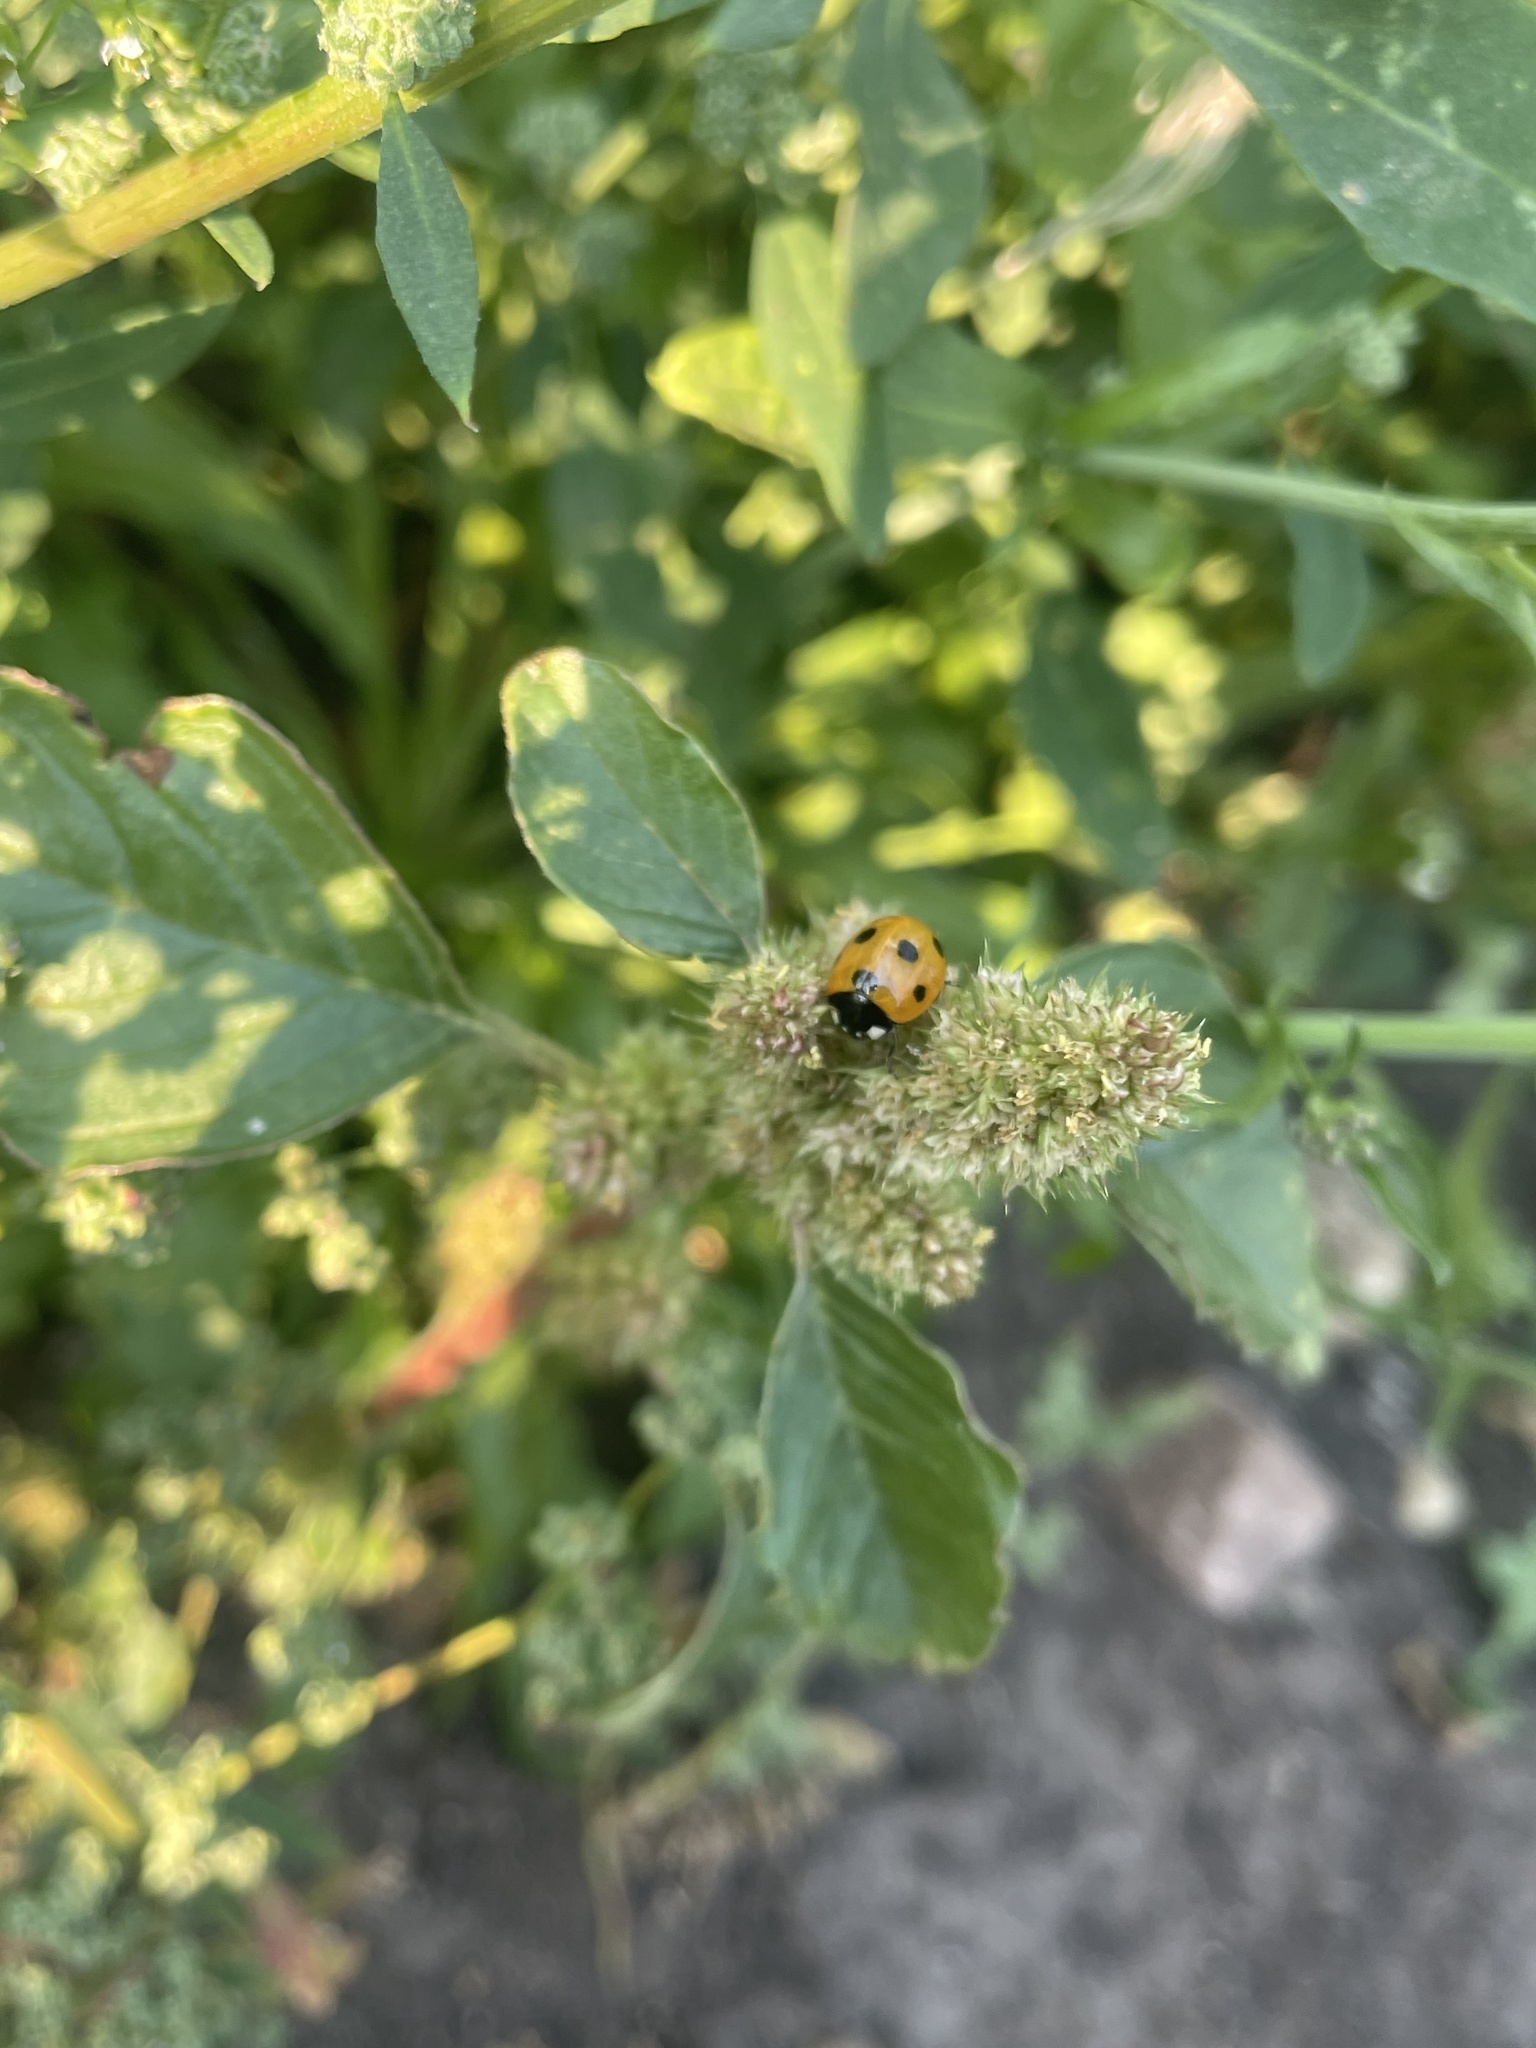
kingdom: Animalia
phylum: Arthropoda
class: Insecta
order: Coleoptera
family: Coccinellidae
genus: Coccinella
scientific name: Coccinella septempunctata
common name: Sevenspotted lady beetle
